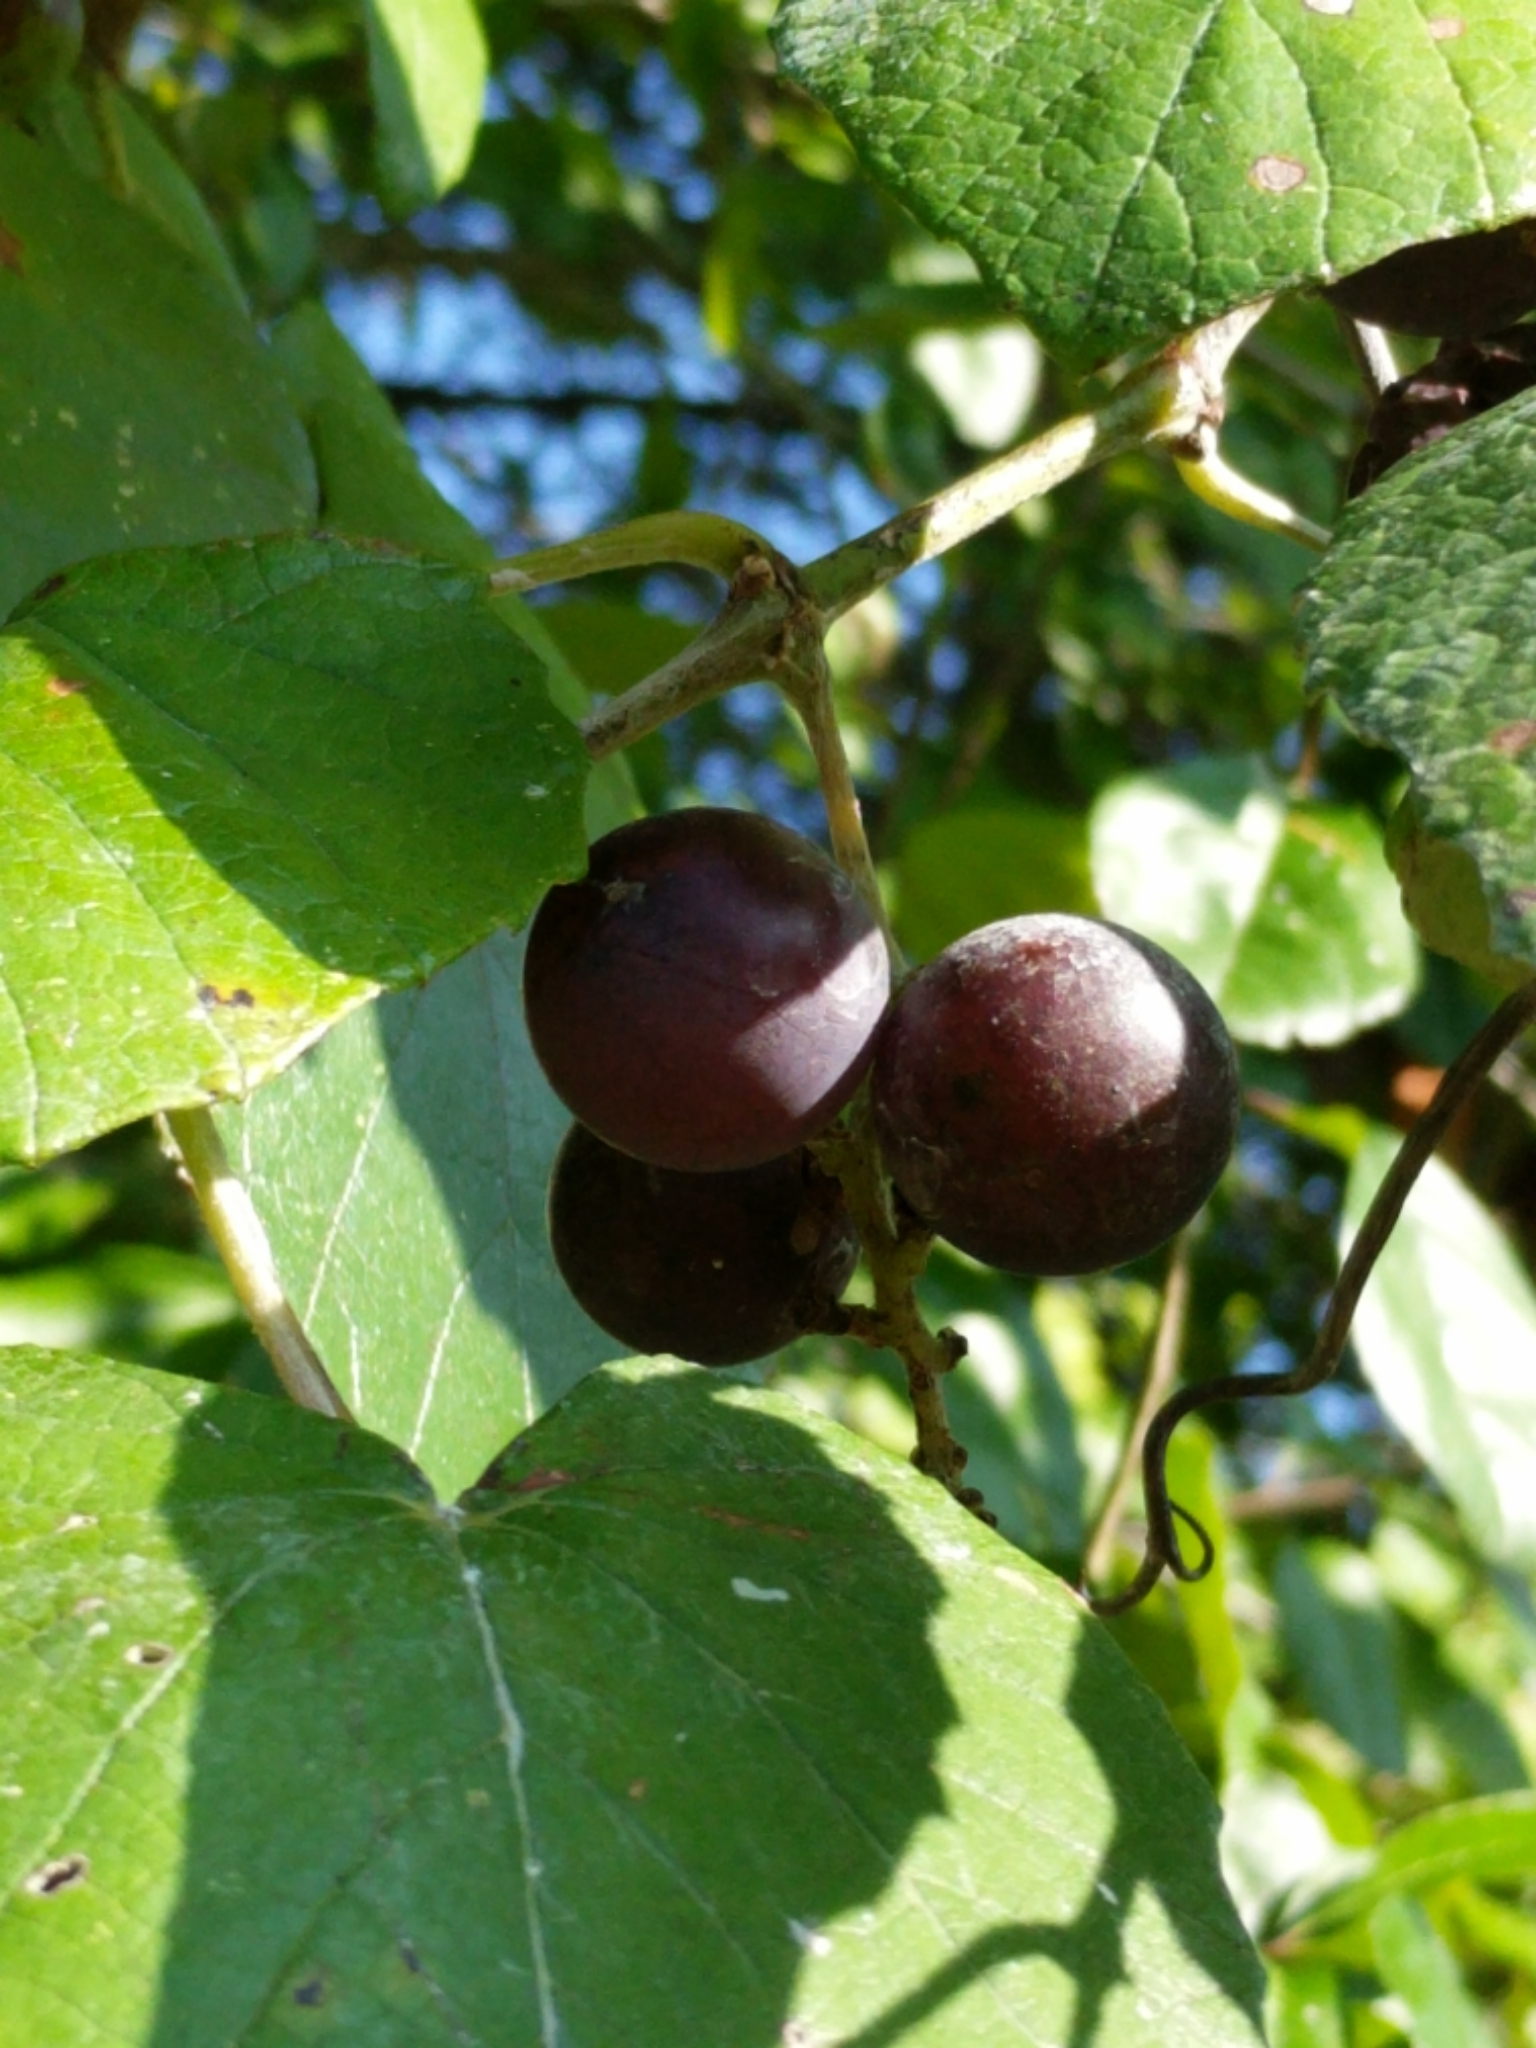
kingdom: Plantae
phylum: Tracheophyta
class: Magnoliopsida
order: Vitales
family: Vitaceae
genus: Vitis
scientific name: Vitis mustangensis
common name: Mustang grape
